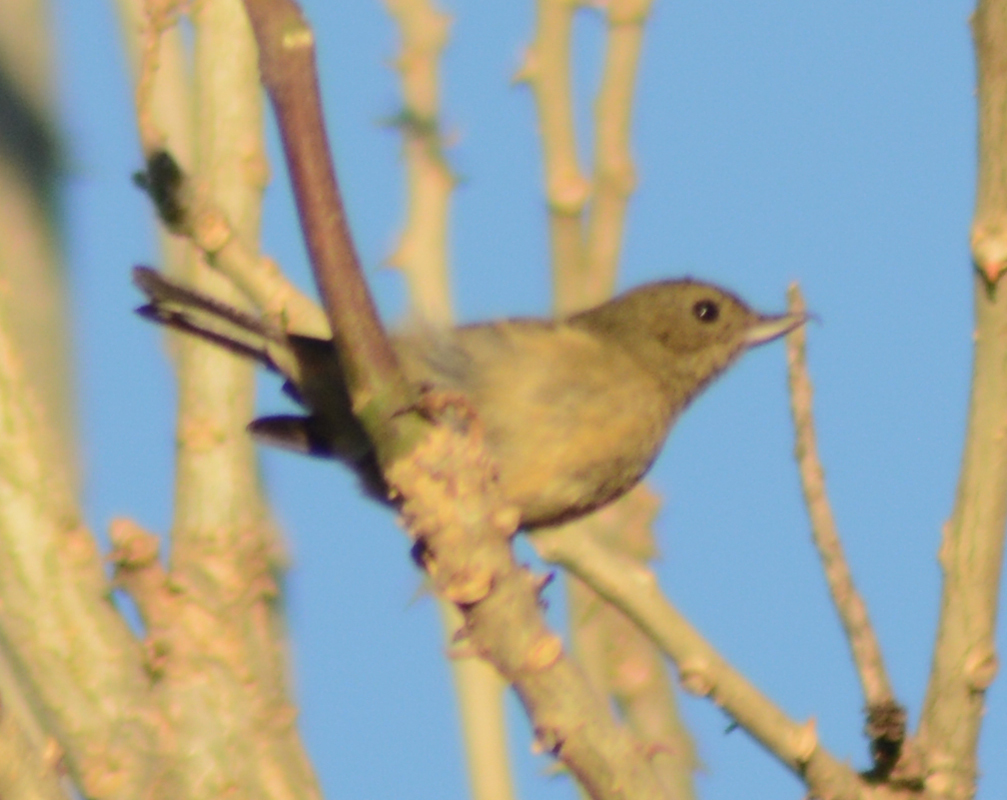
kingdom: Animalia
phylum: Chordata
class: Aves
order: Passeriformes
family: Thraupidae
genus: Diglossa
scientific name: Diglossa baritula
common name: Cinnamon-bellied flowerpiercer
